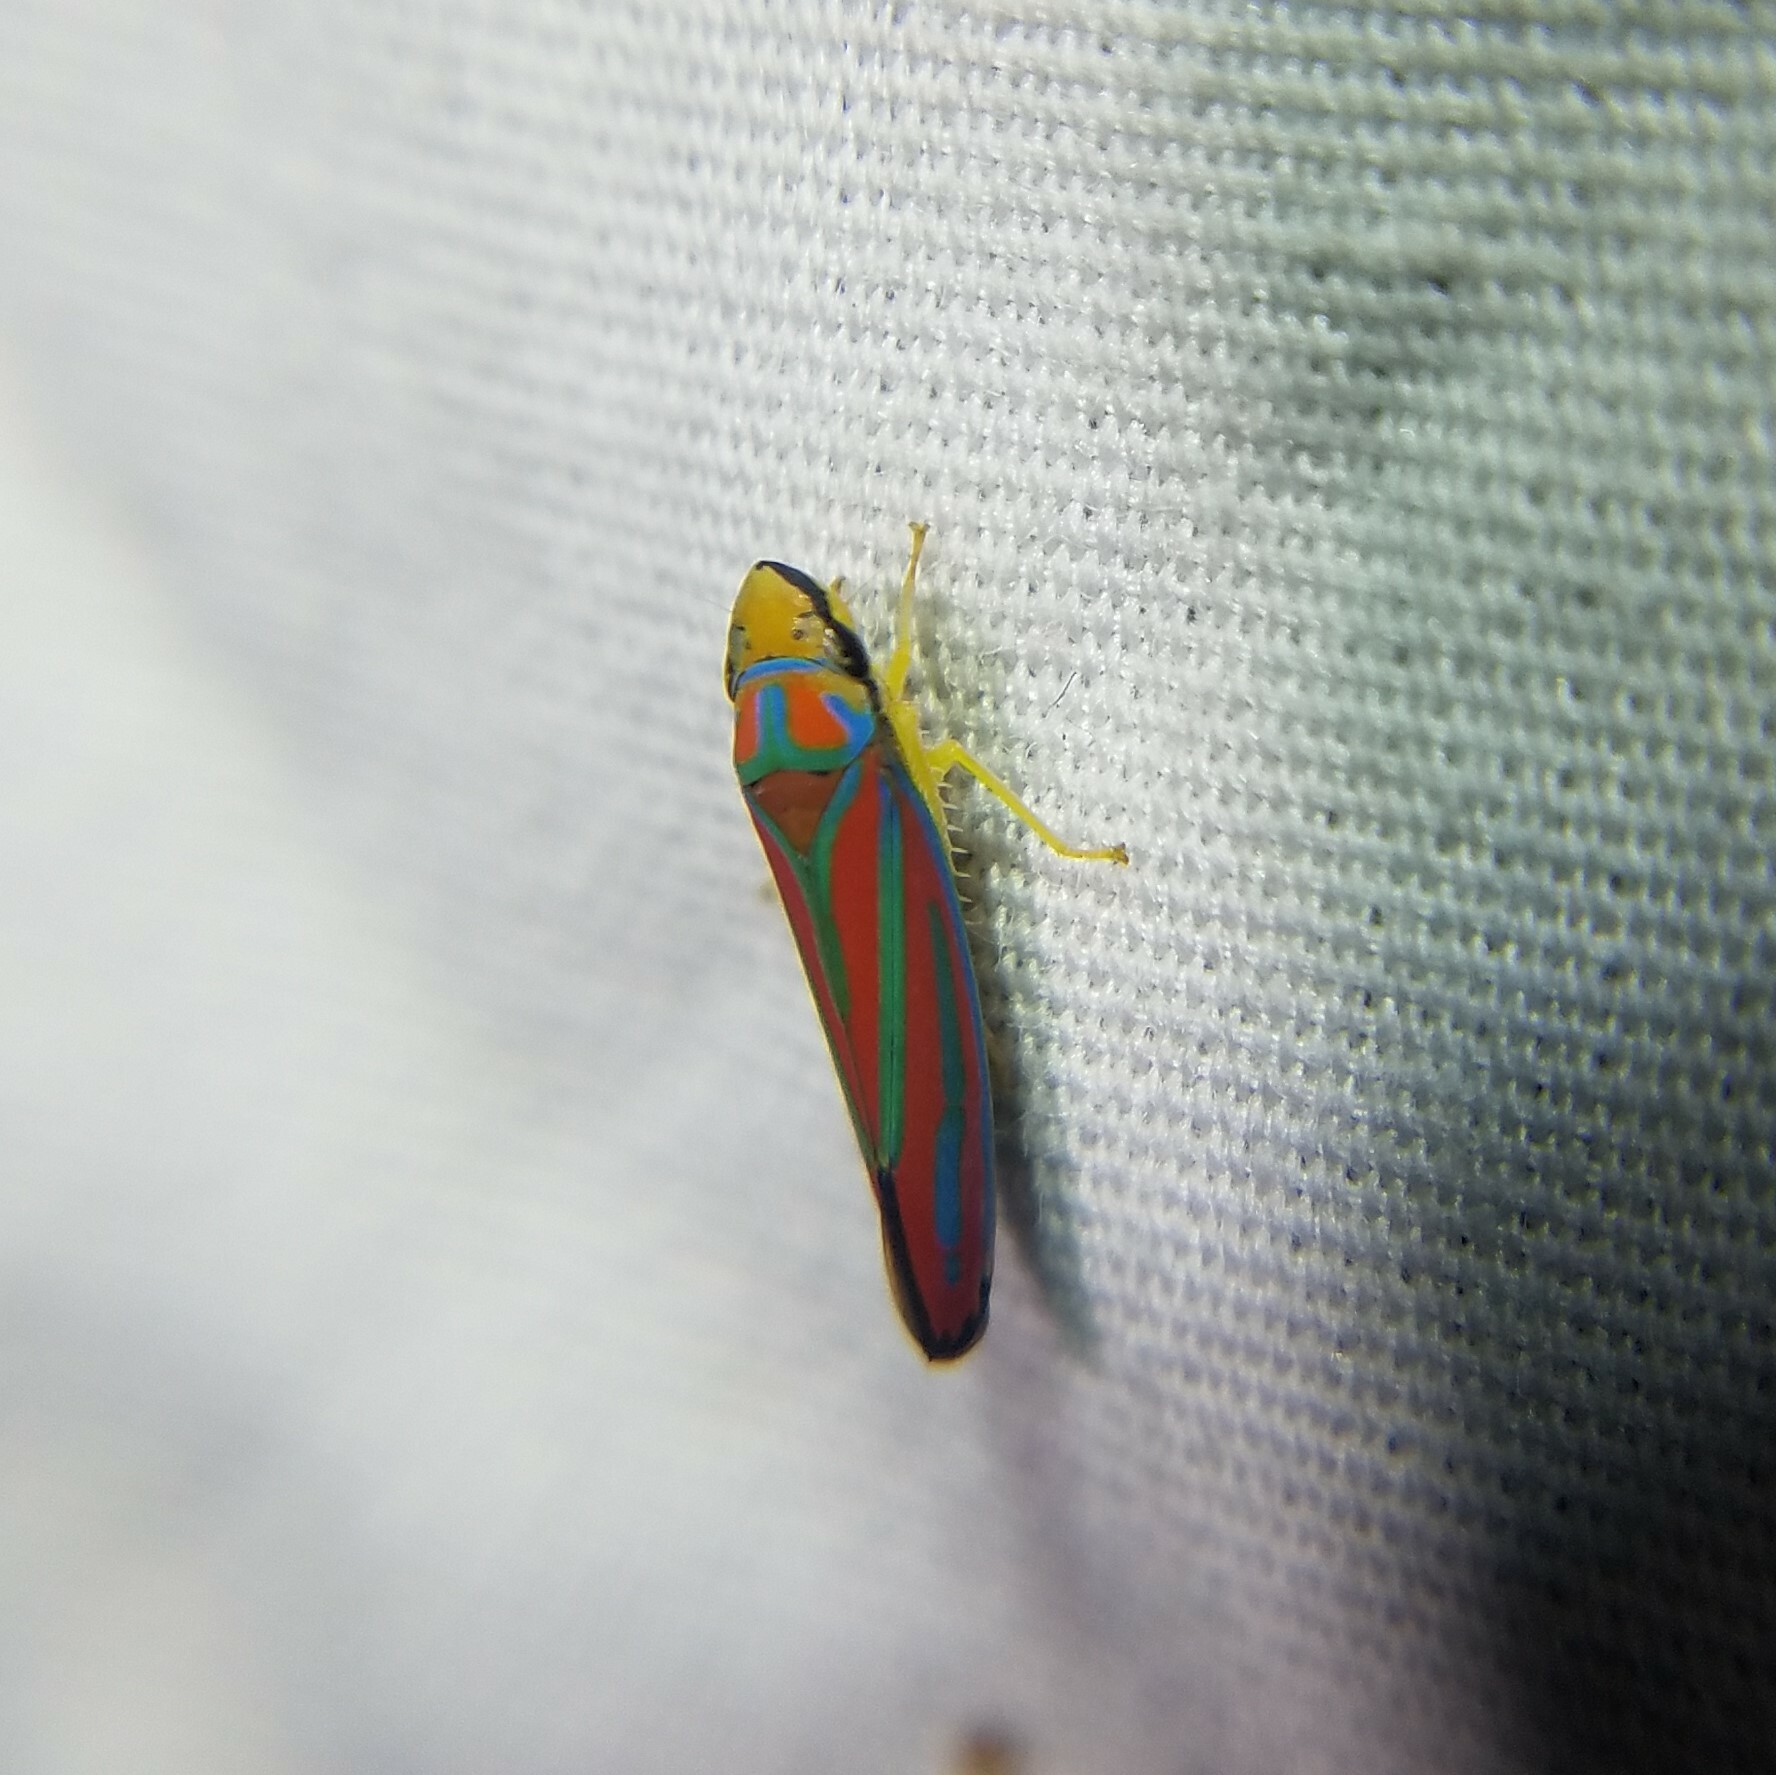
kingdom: Animalia
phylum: Arthropoda
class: Insecta
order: Hemiptera
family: Cicadellidae
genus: Graphocephala
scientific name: Graphocephala coccinea
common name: Candy-striped leafhopper
